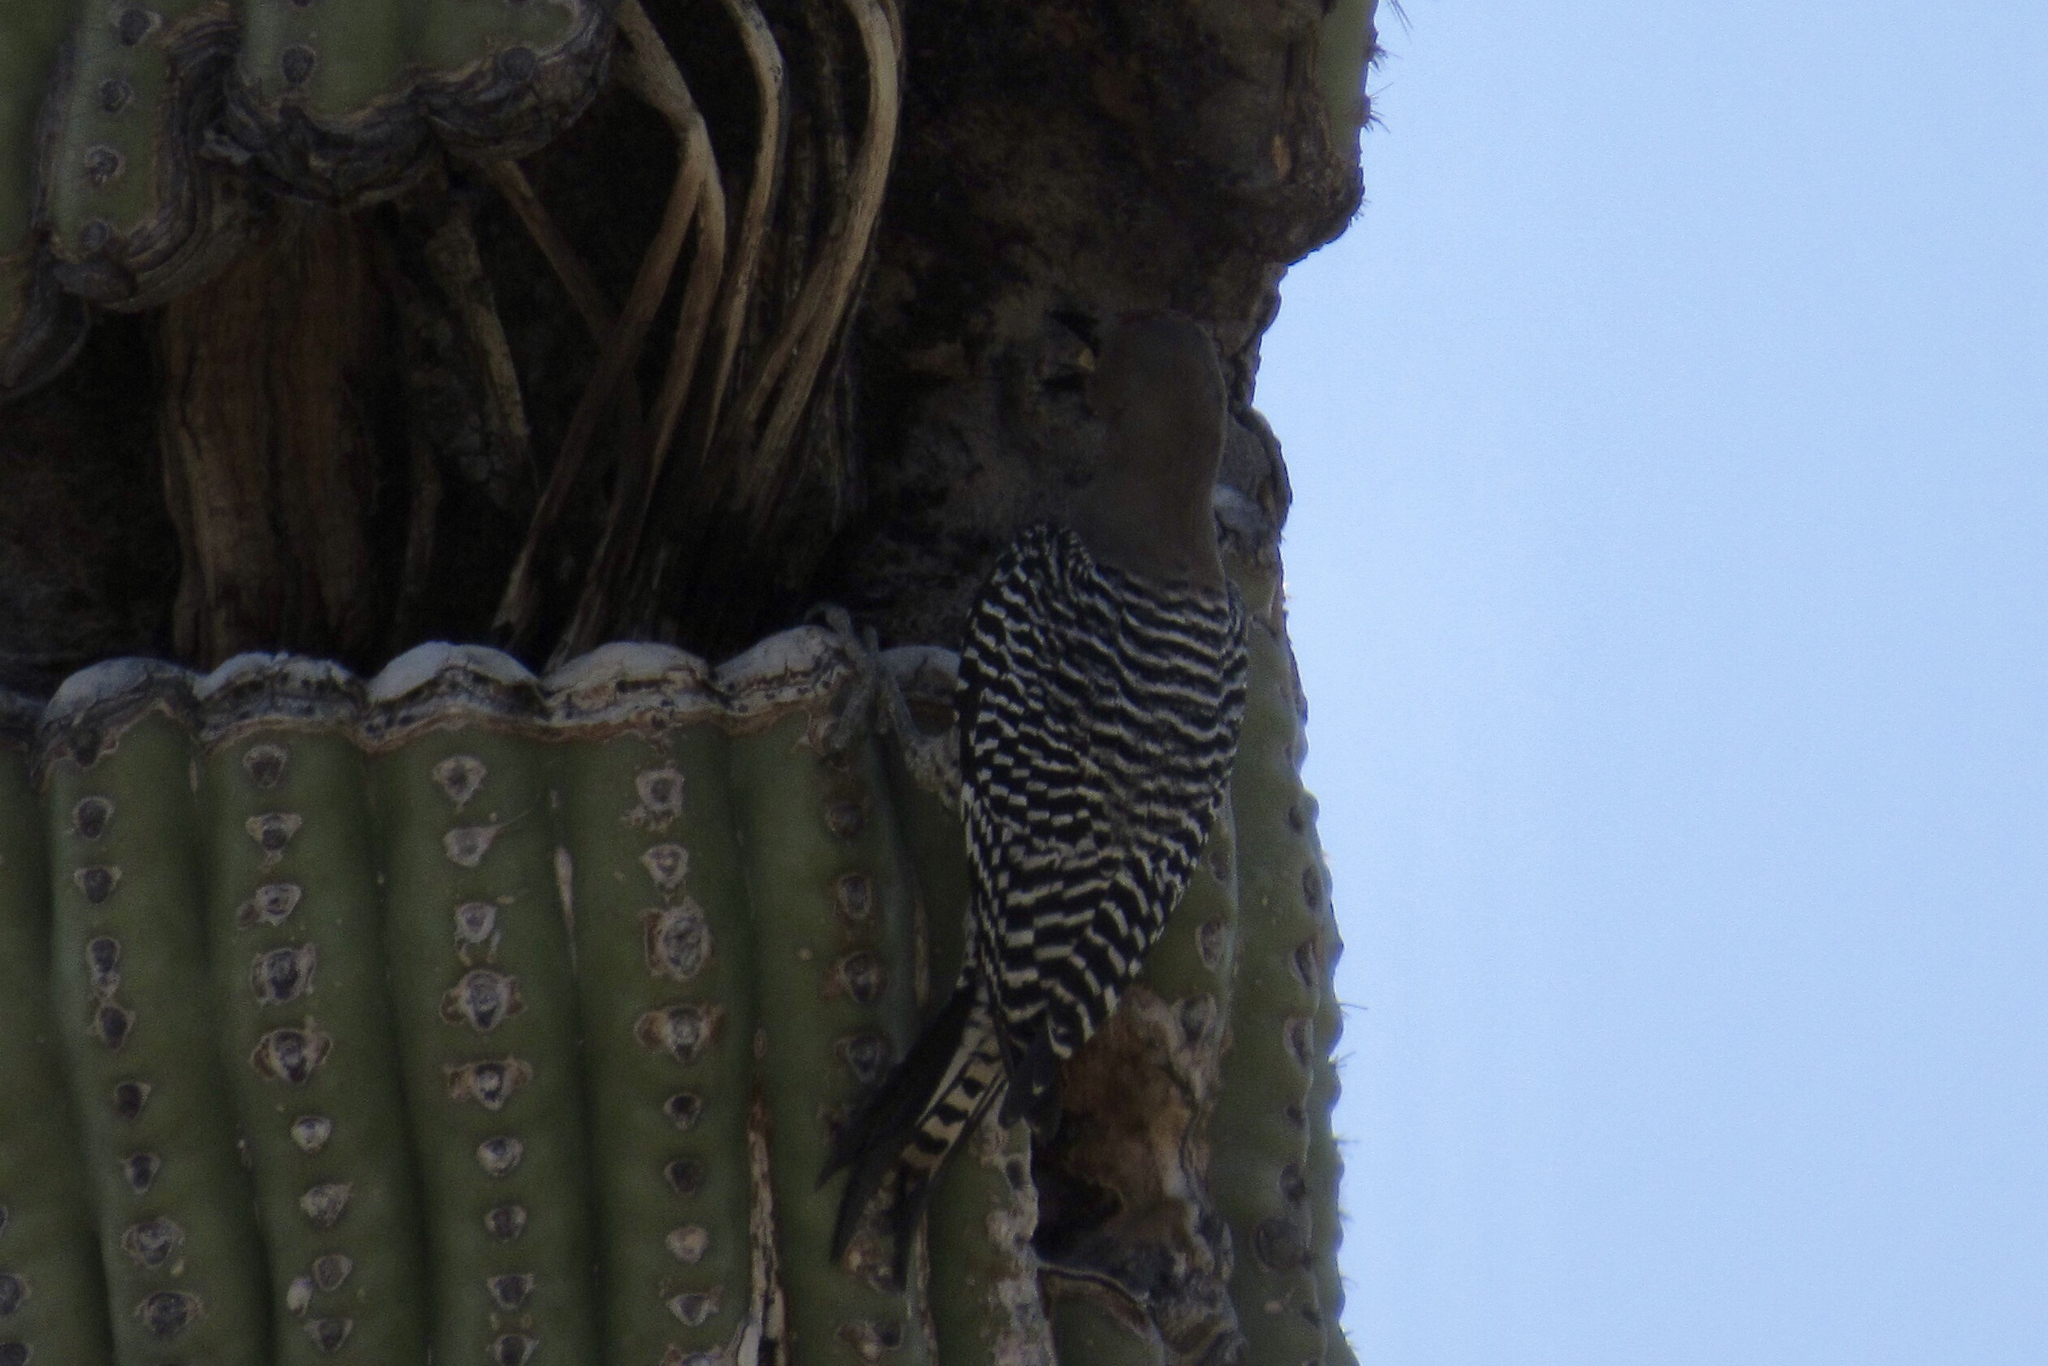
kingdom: Animalia
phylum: Chordata
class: Aves
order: Piciformes
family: Picidae
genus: Melanerpes
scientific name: Melanerpes uropygialis
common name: Gila woodpecker
